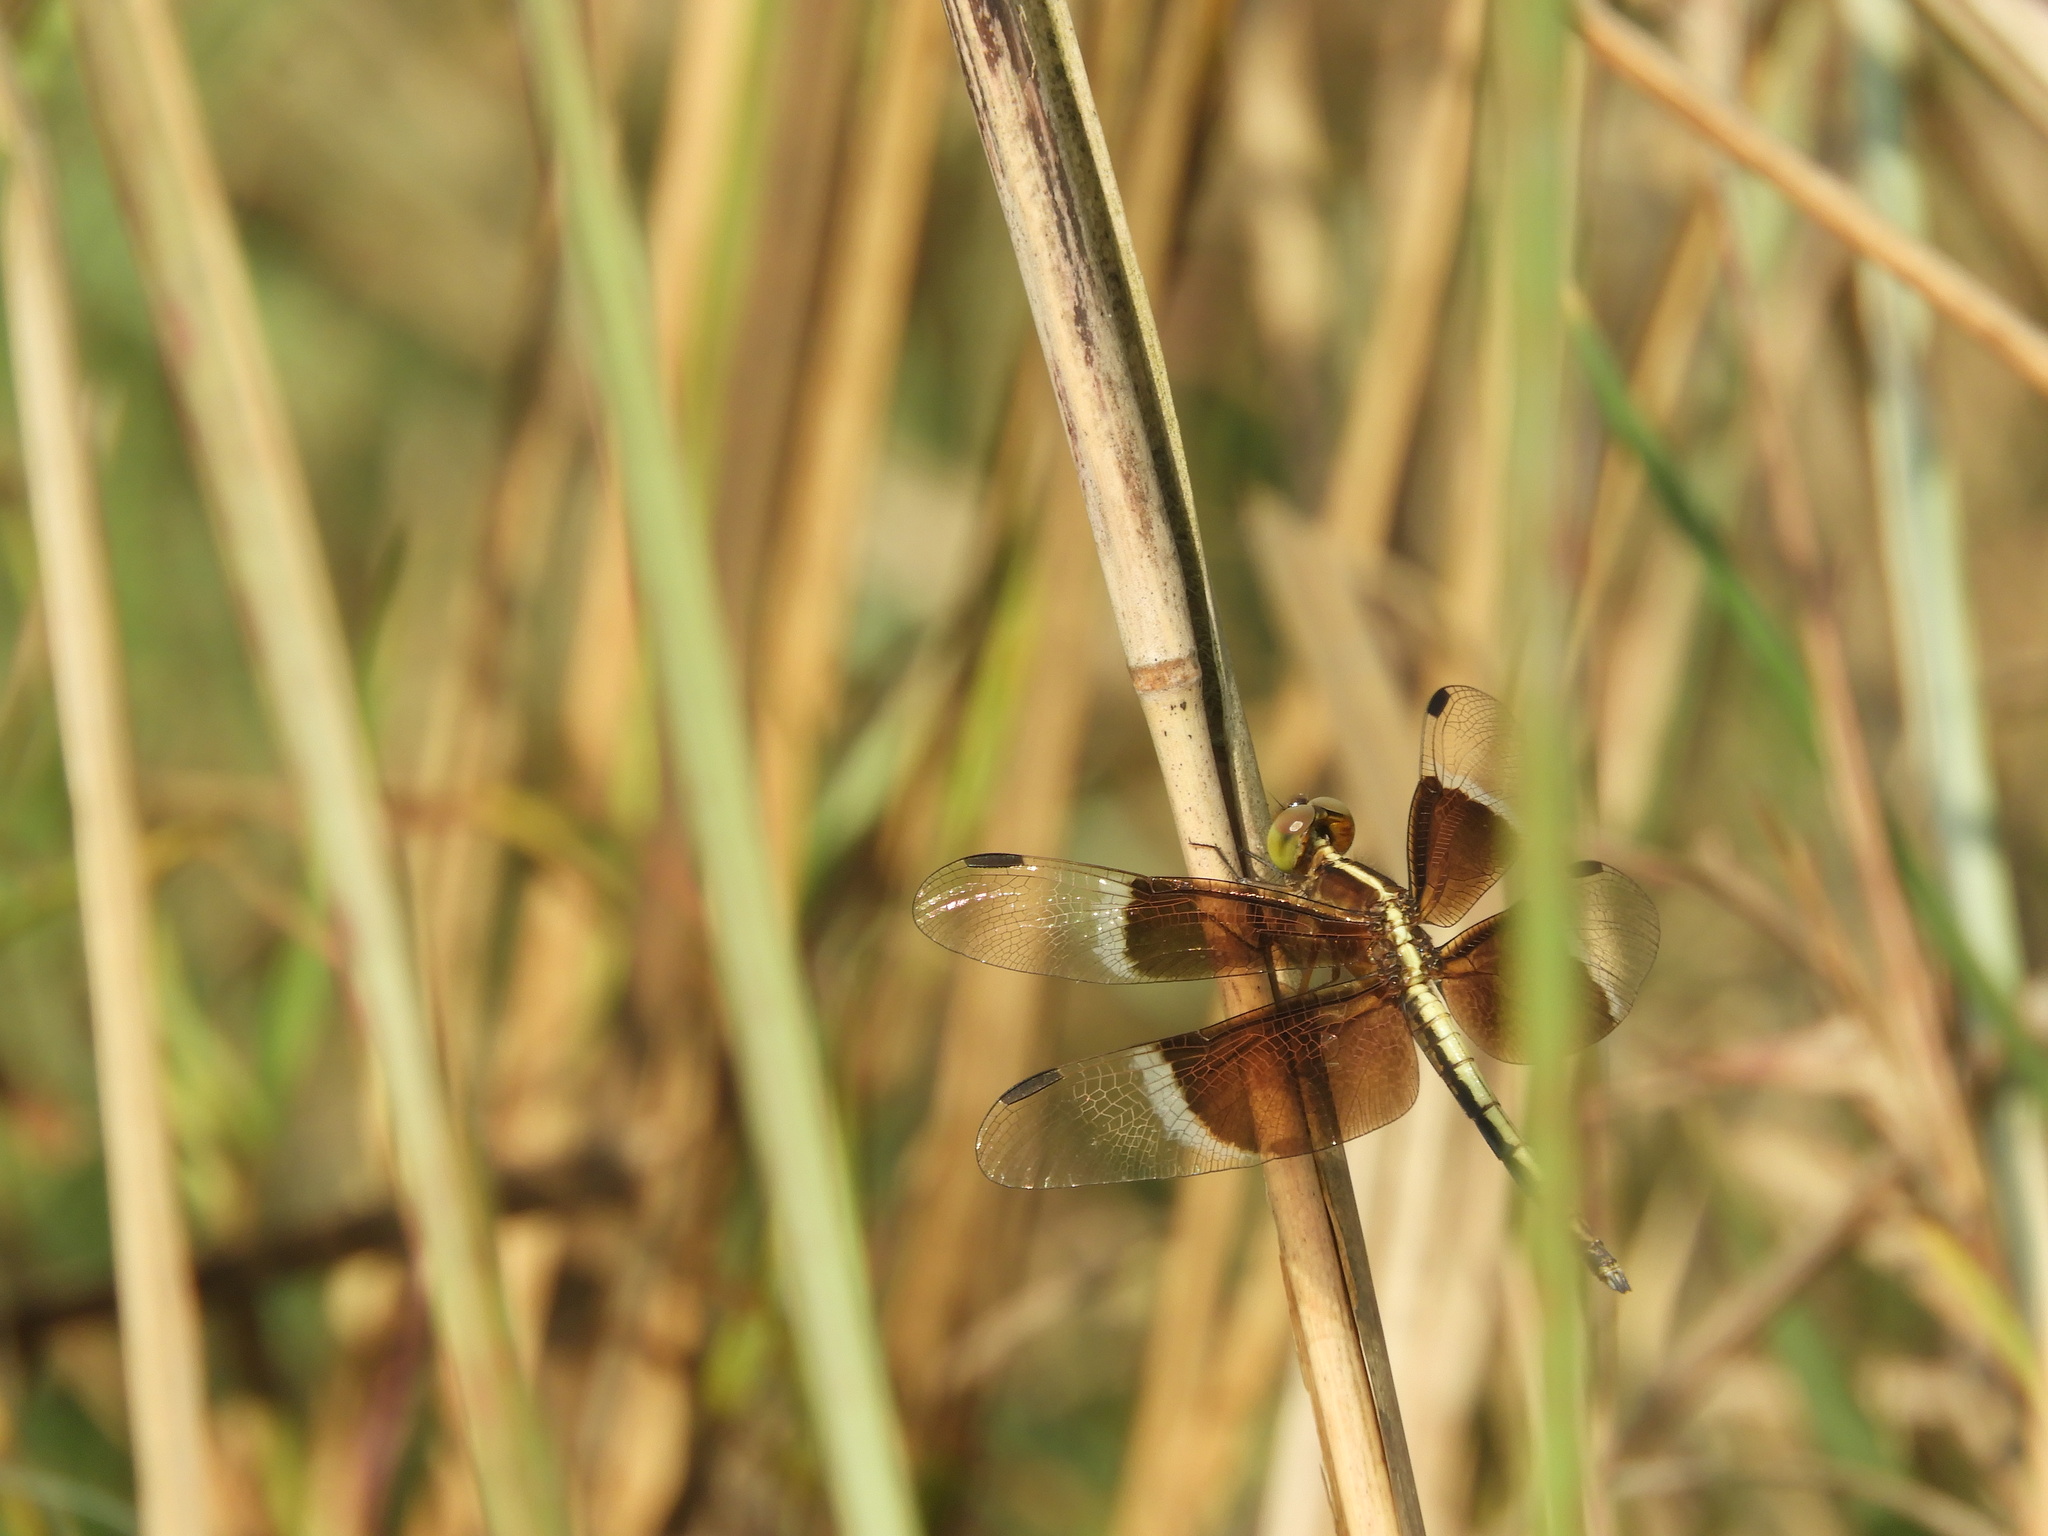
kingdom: Animalia
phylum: Arthropoda
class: Insecta
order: Odonata
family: Libellulidae
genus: Neurothemis
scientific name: Neurothemis tullia
